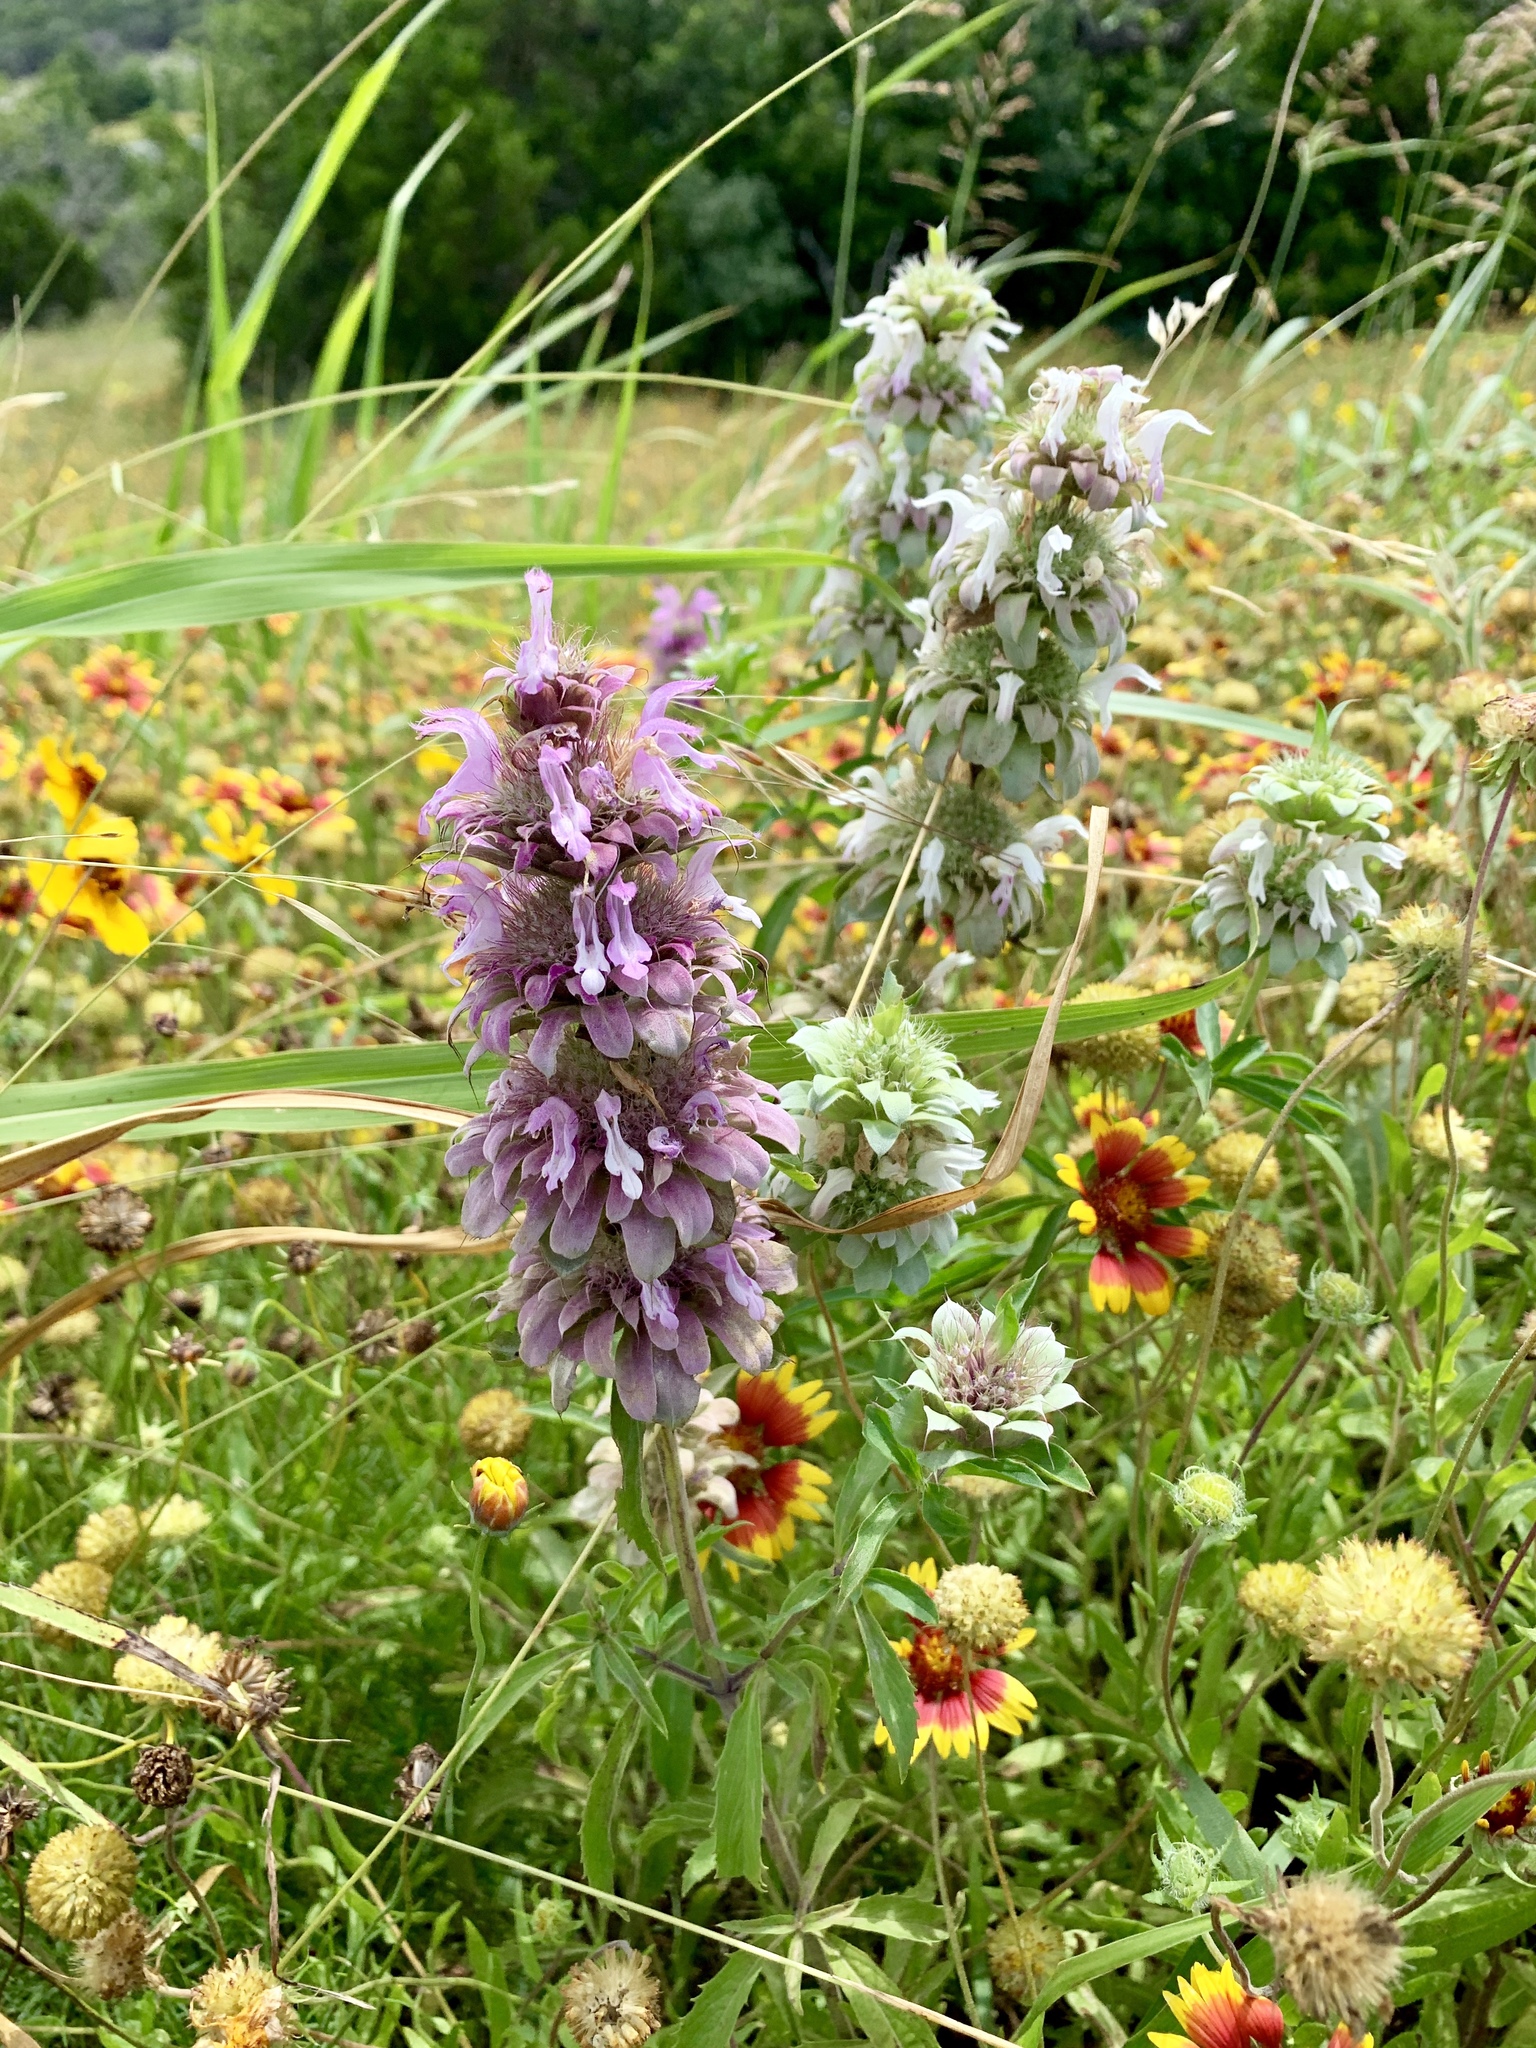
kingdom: Plantae
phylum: Tracheophyta
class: Magnoliopsida
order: Lamiales
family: Lamiaceae
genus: Monarda
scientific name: Monarda citriodora
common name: Lemon beebalm
